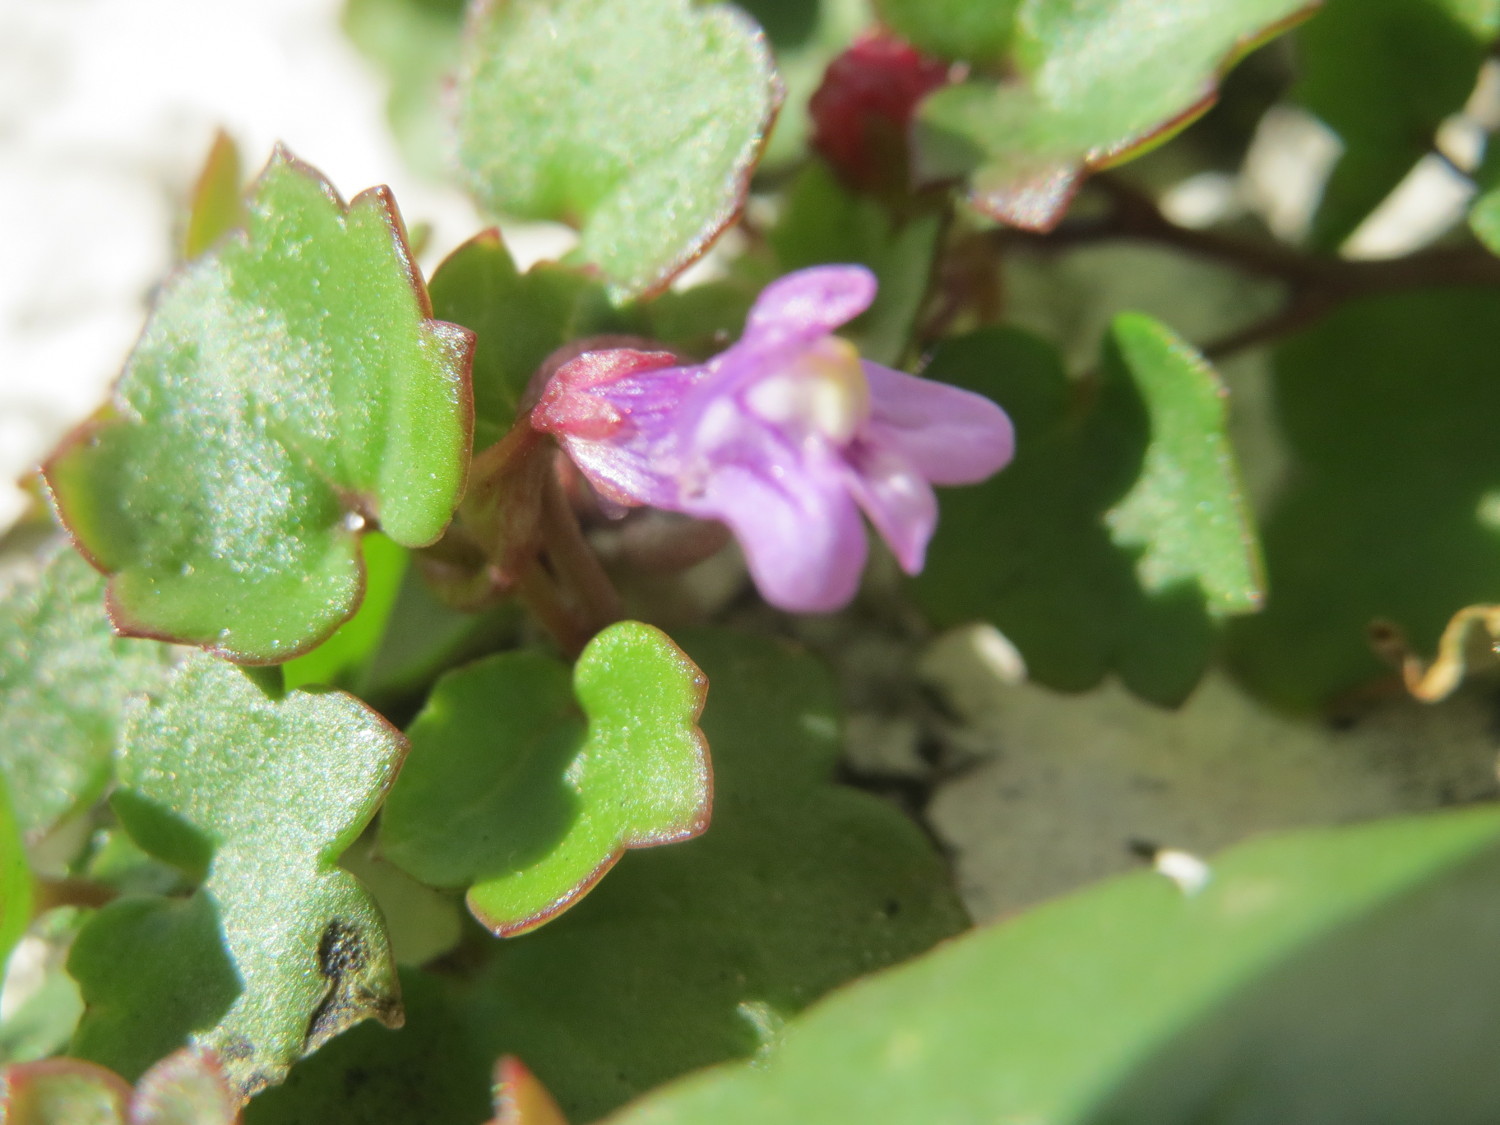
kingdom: Plantae
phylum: Tracheophyta
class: Magnoliopsida
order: Lamiales
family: Plantaginaceae
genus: Cymbalaria
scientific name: Cymbalaria muralis
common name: Ivy-leaved toadflax
